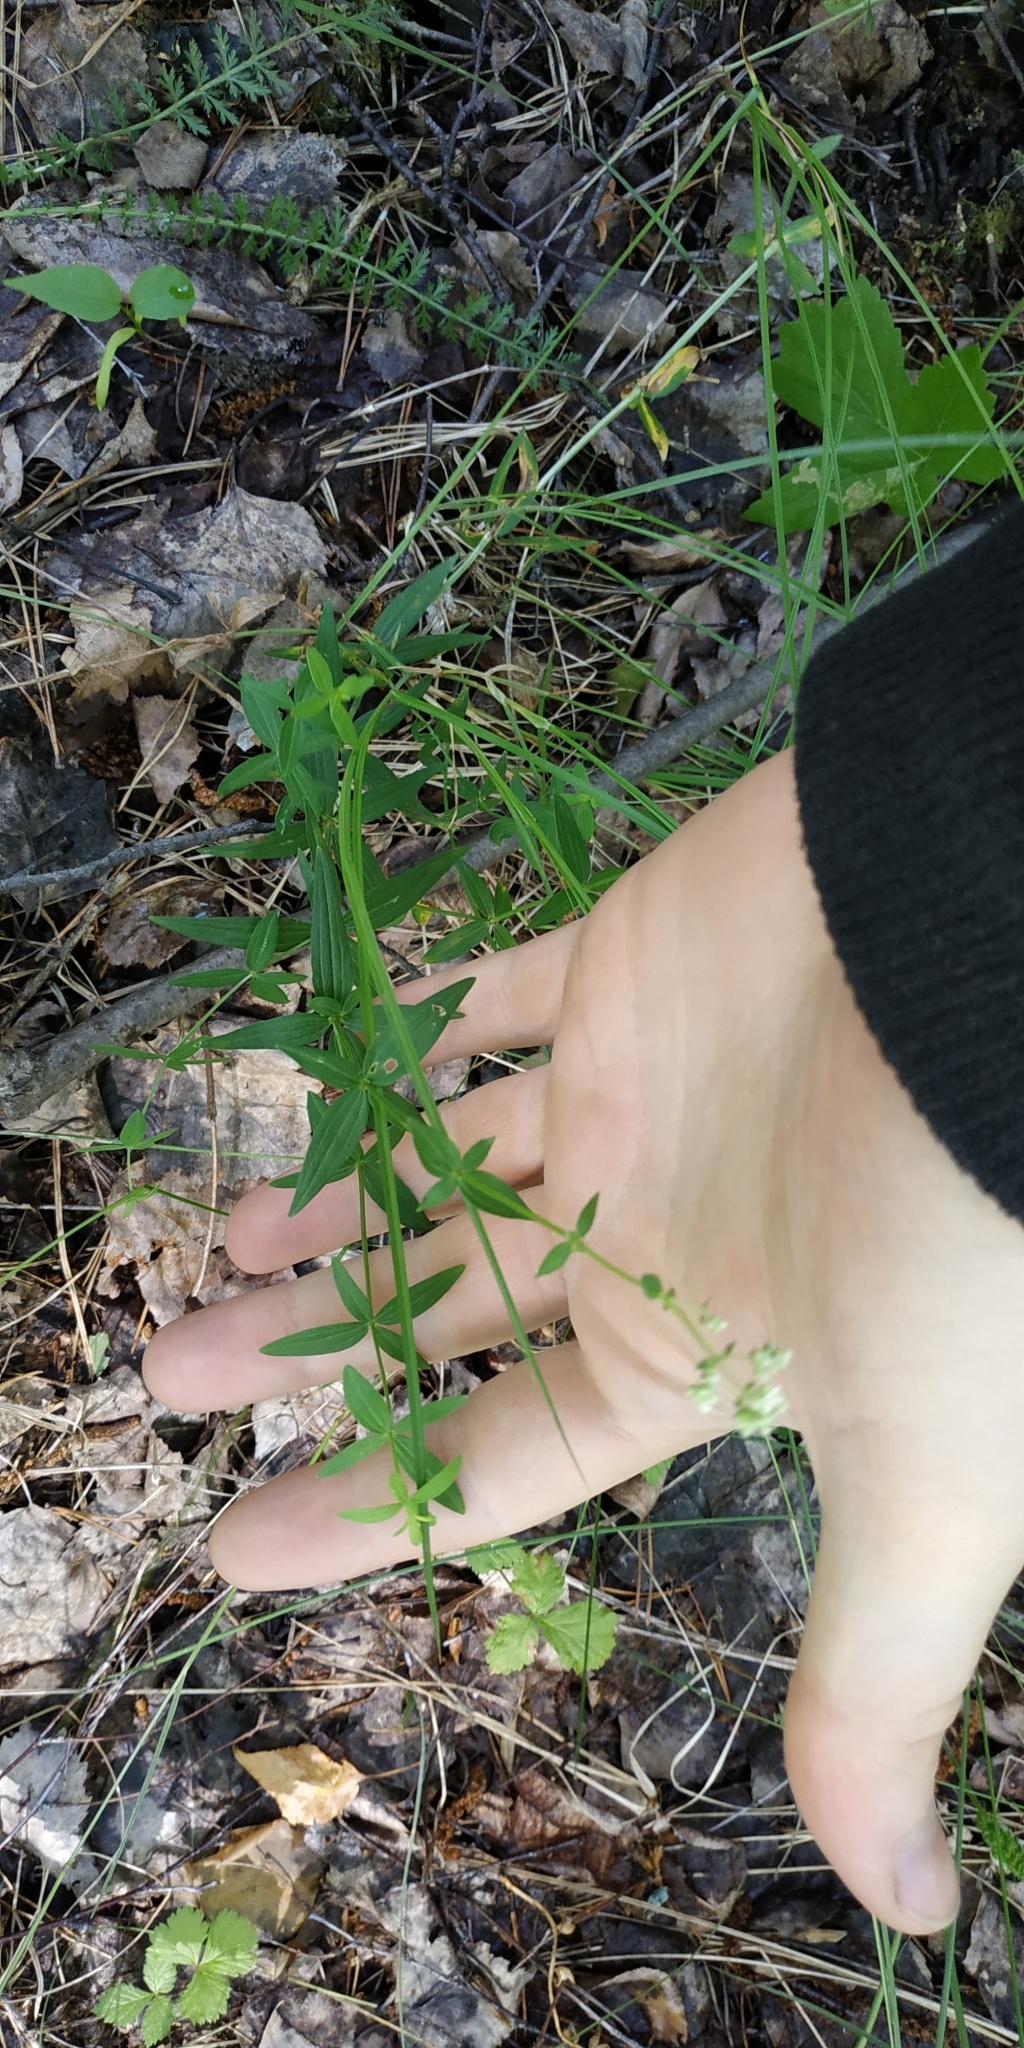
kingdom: Plantae
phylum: Tracheophyta
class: Magnoliopsida
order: Gentianales
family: Rubiaceae
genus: Galium
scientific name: Galium boreale
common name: Northern bedstraw
